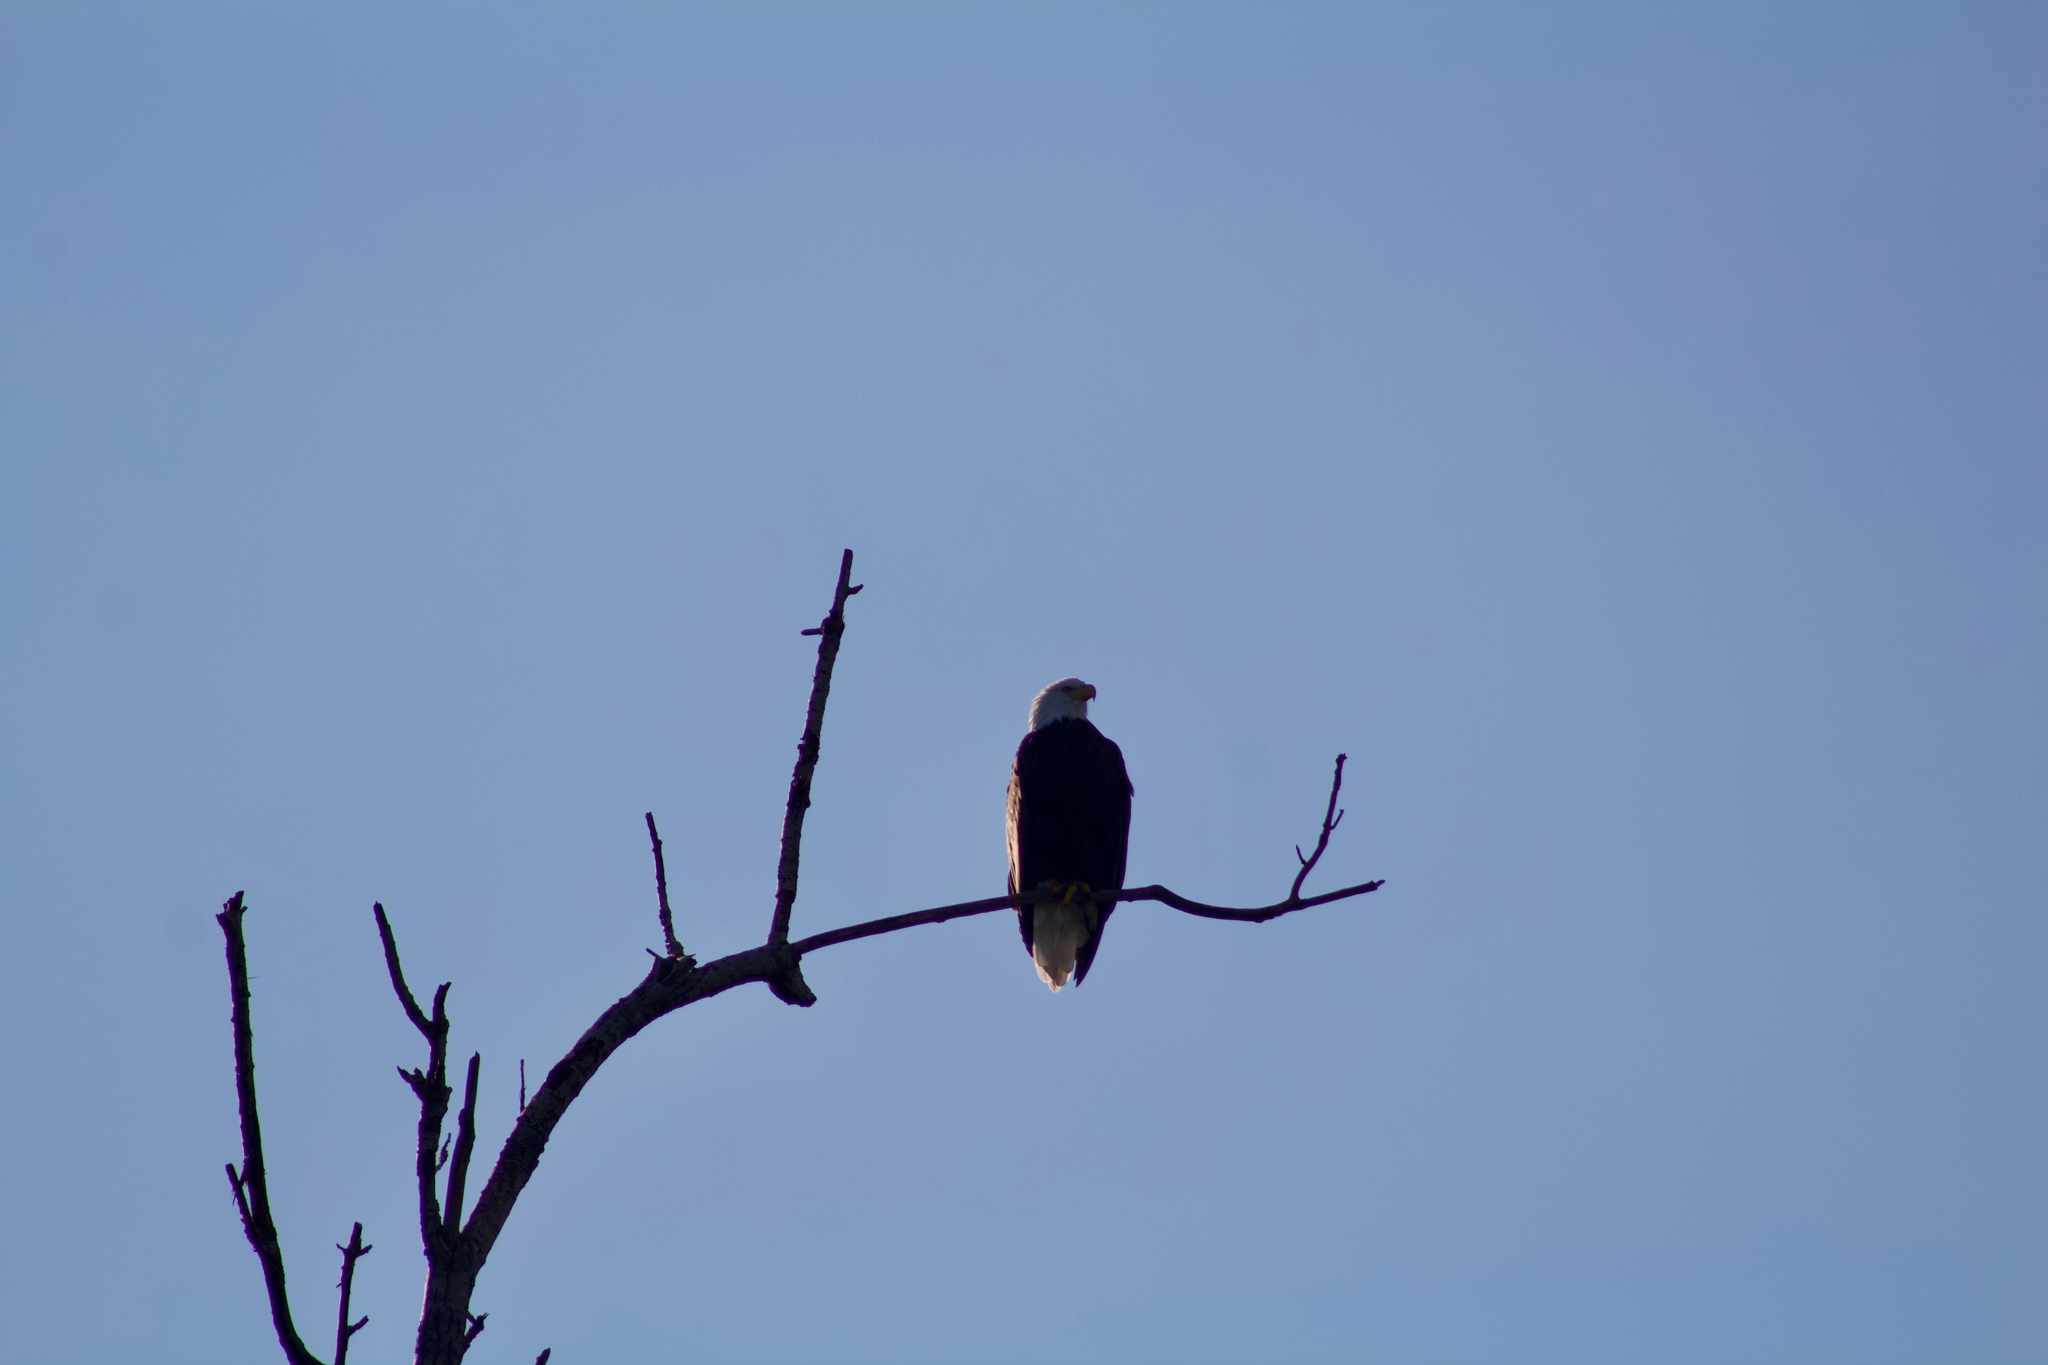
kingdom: Animalia
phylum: Chordata
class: Aves
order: Accipitriformes
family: Accipitridae
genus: Haliaeetus
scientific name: Haliaeetus leucocephalus
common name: Bald eagle
